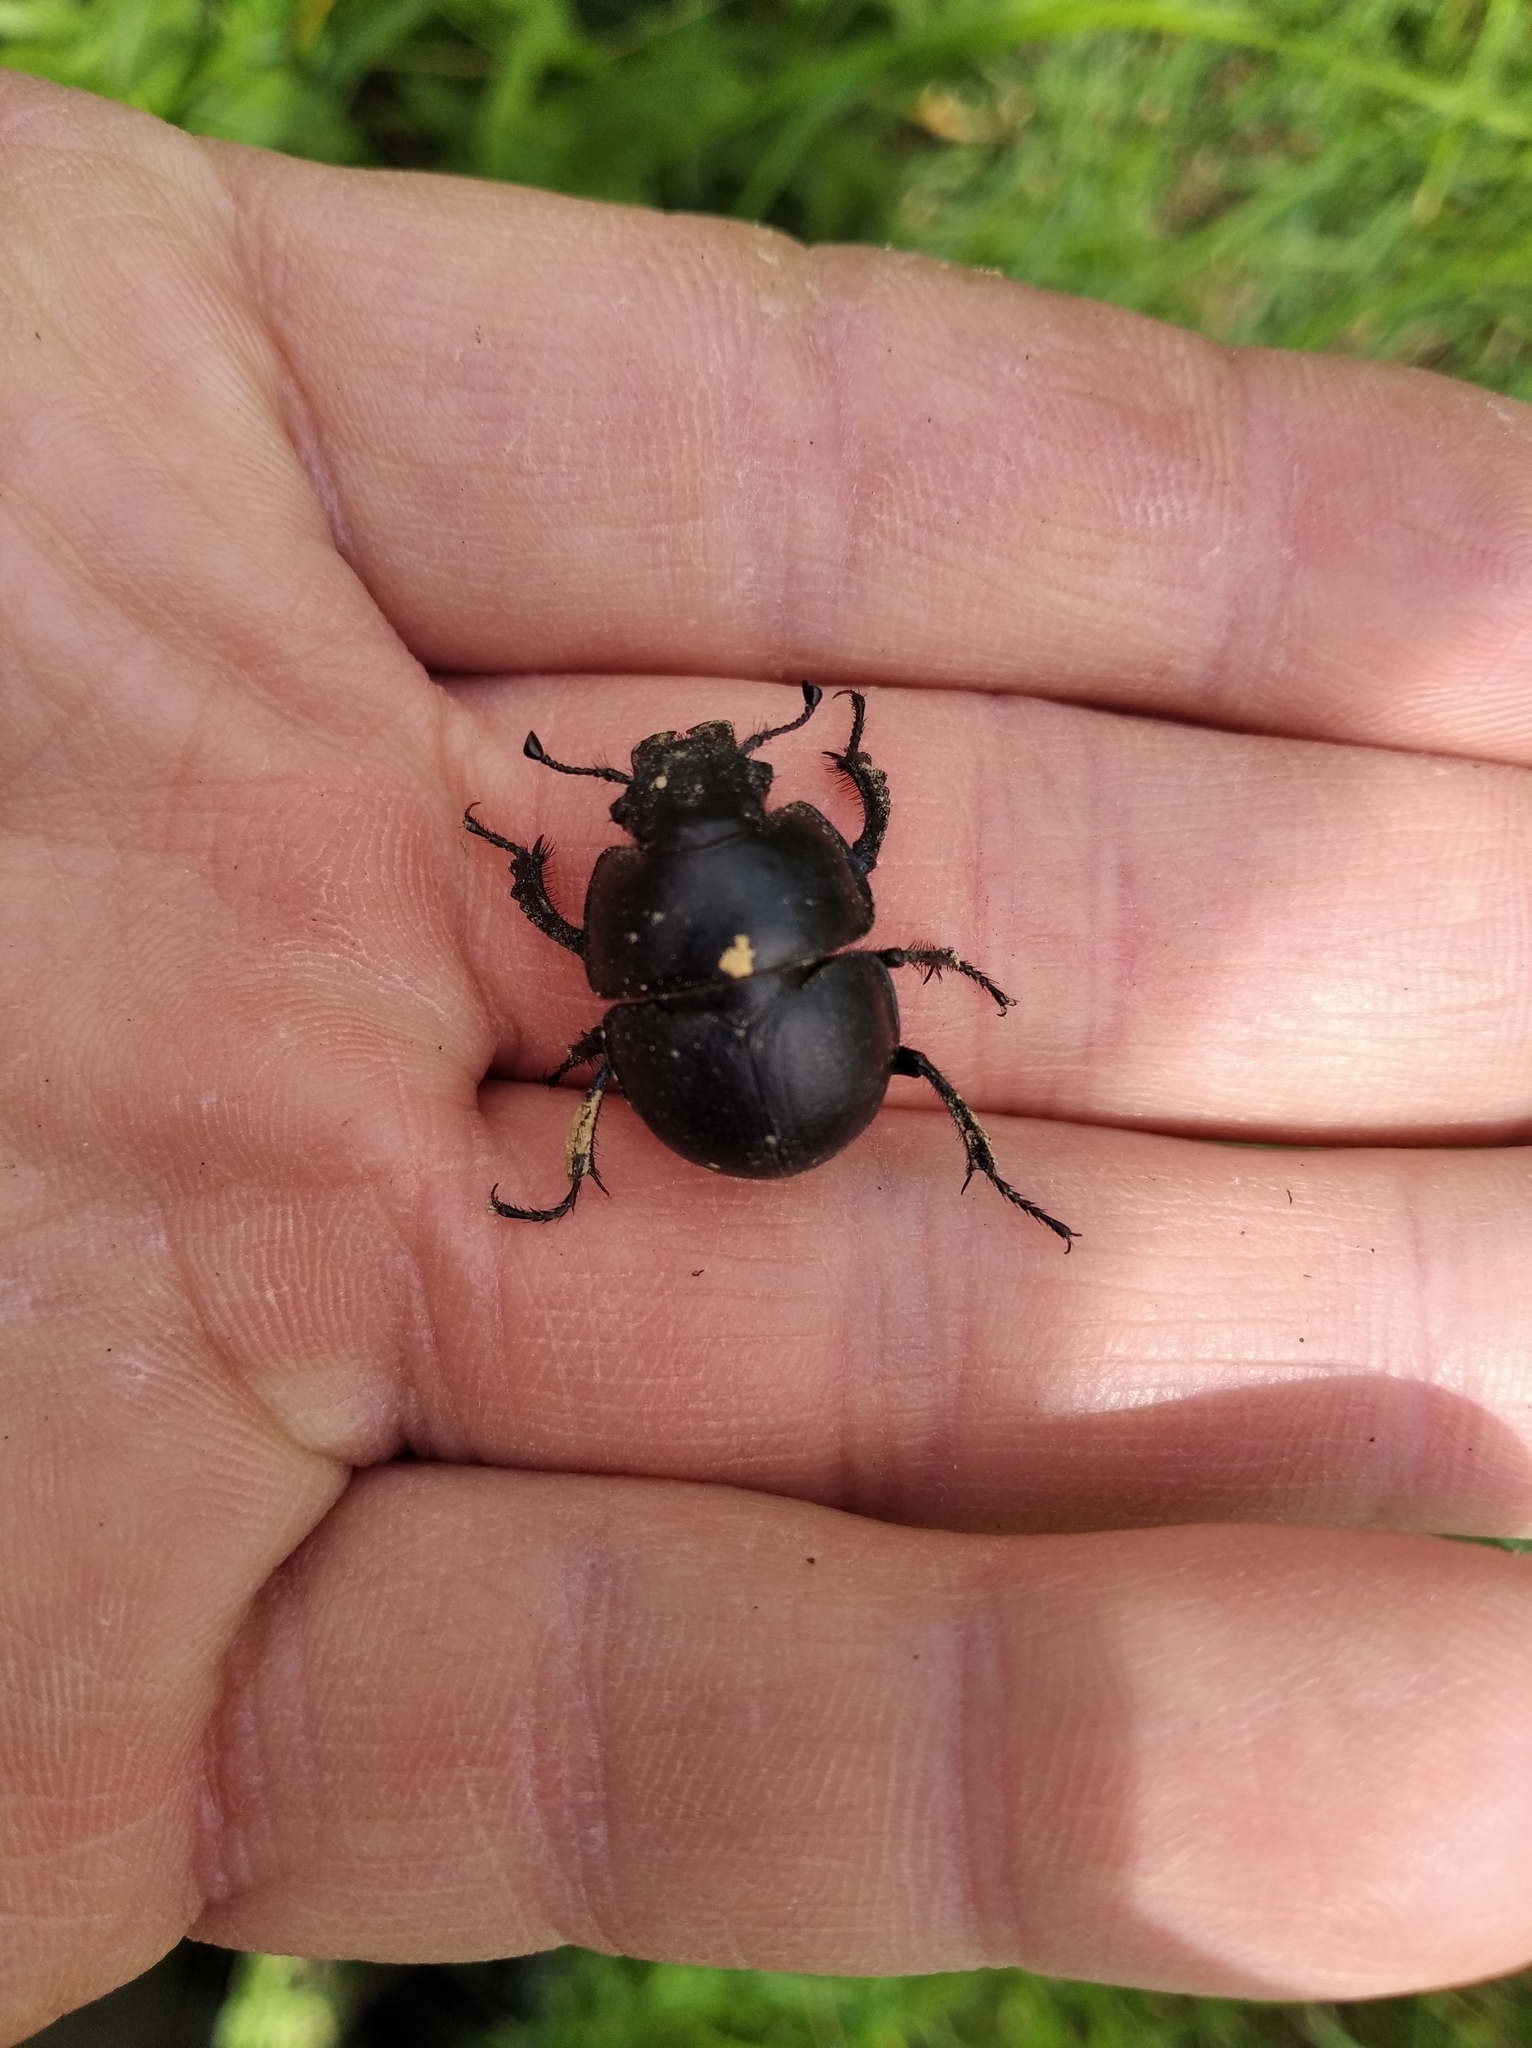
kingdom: Animalia
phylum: Arthropoda
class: Insecta
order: Coleoptera
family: Geotrupidae
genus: Lethrus
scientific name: Lethrus apterus
